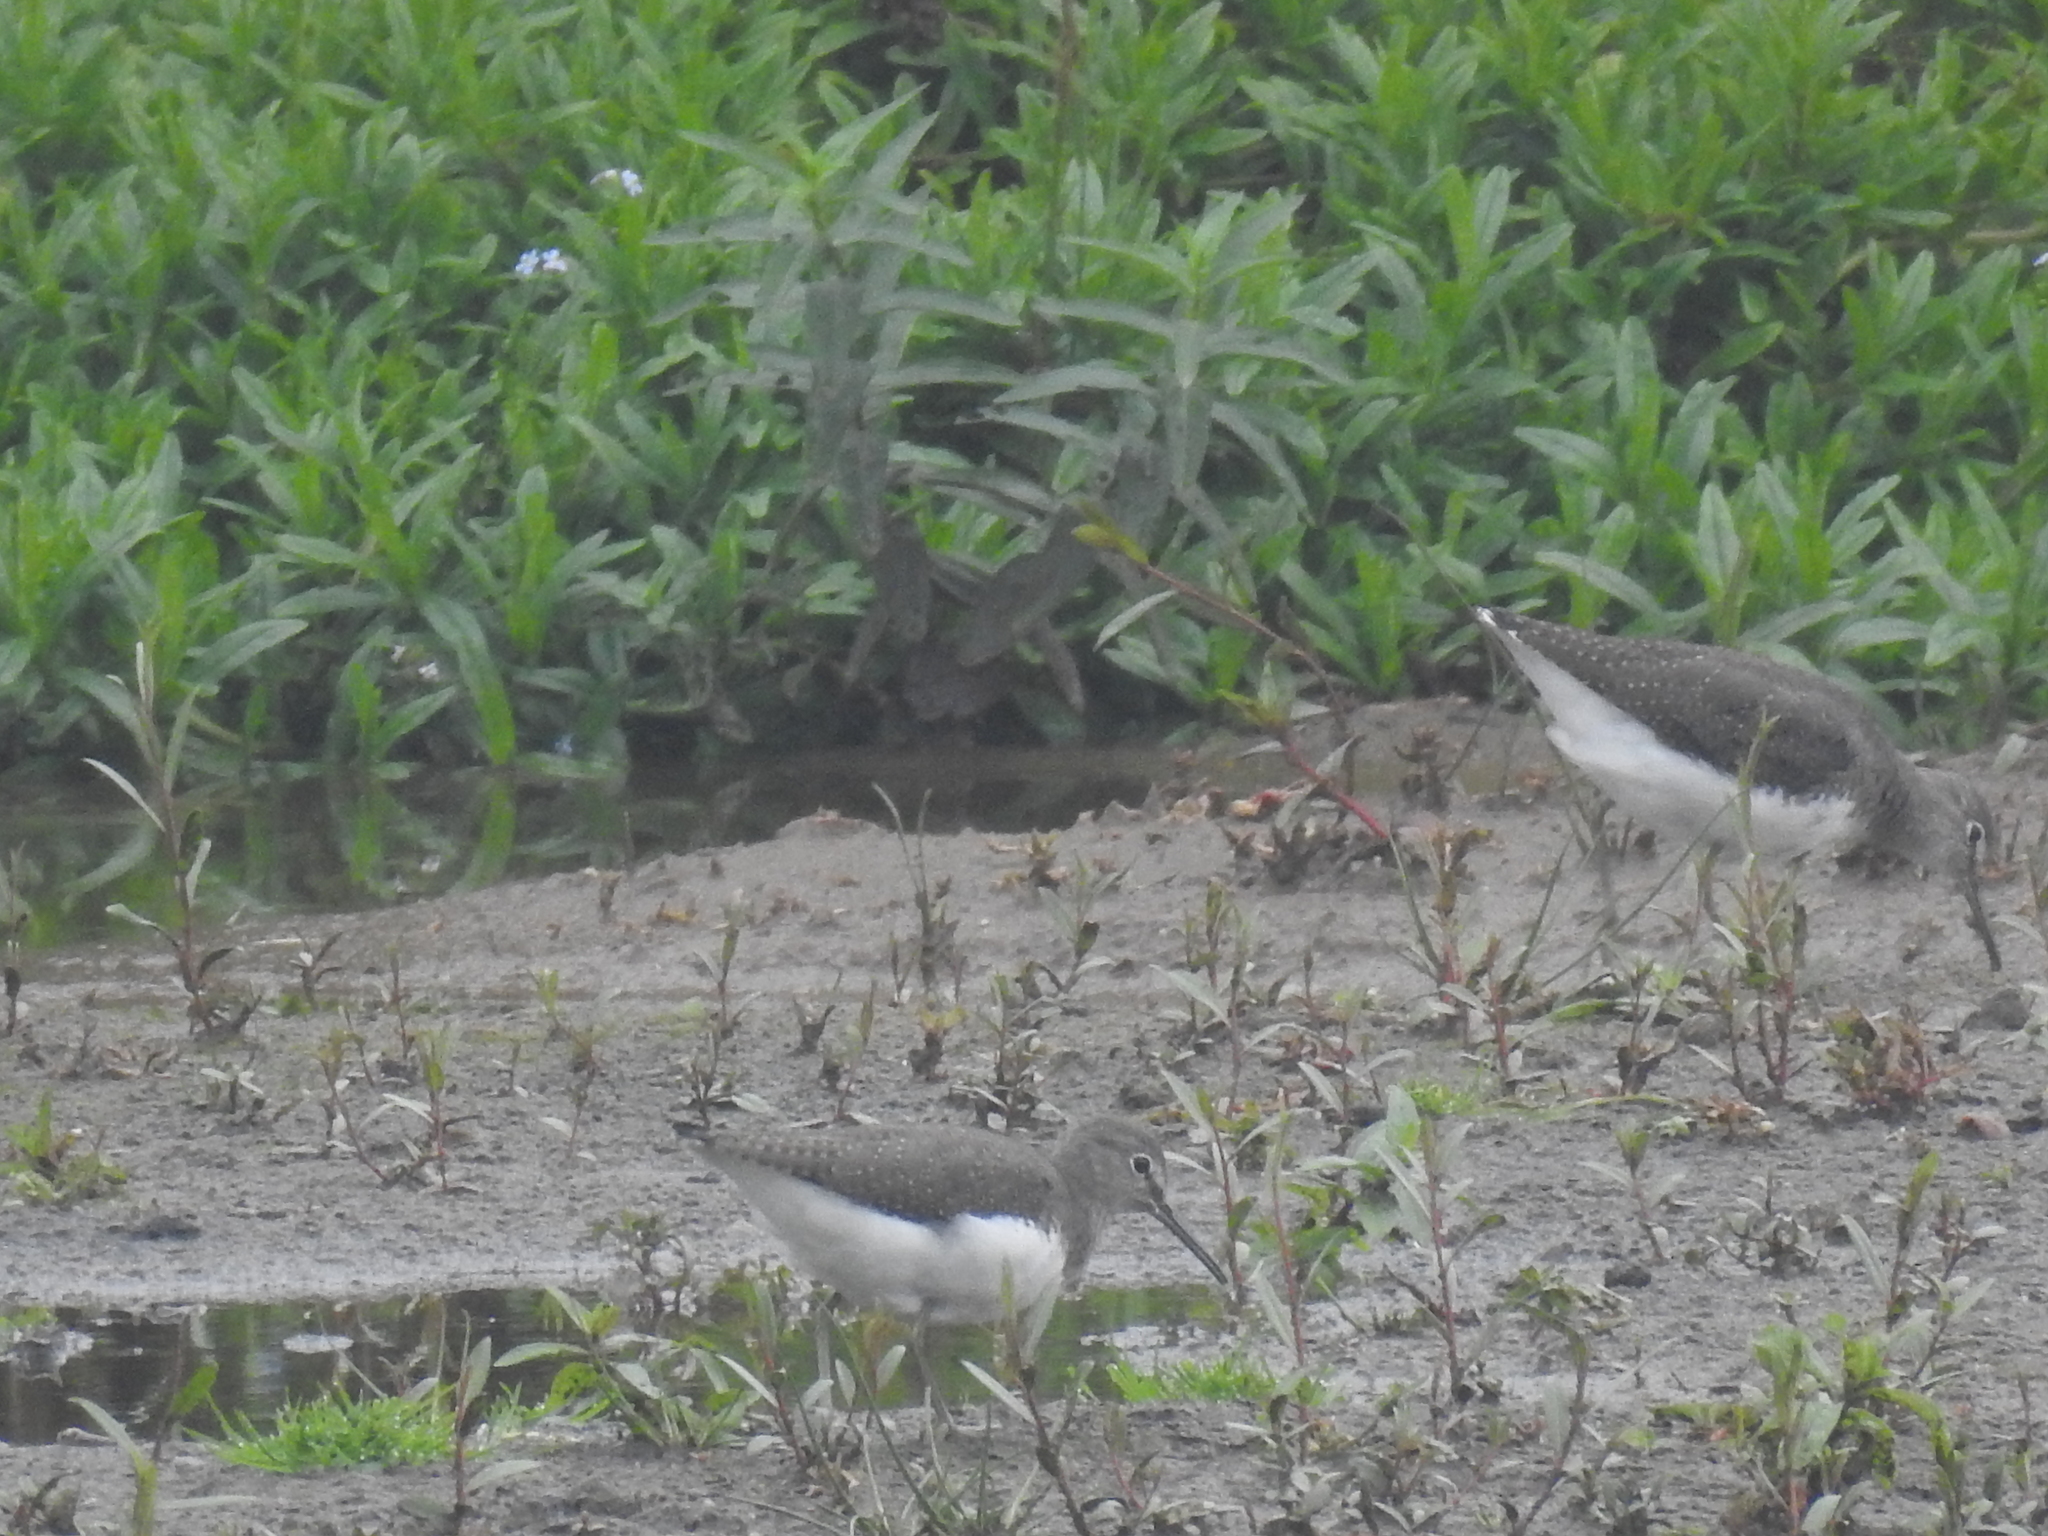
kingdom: Animalia
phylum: Chordata
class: Aves
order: Charadriiformes
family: Scolopacidae
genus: Tringa
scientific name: Tringa ochropus
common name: Green sandpiper
